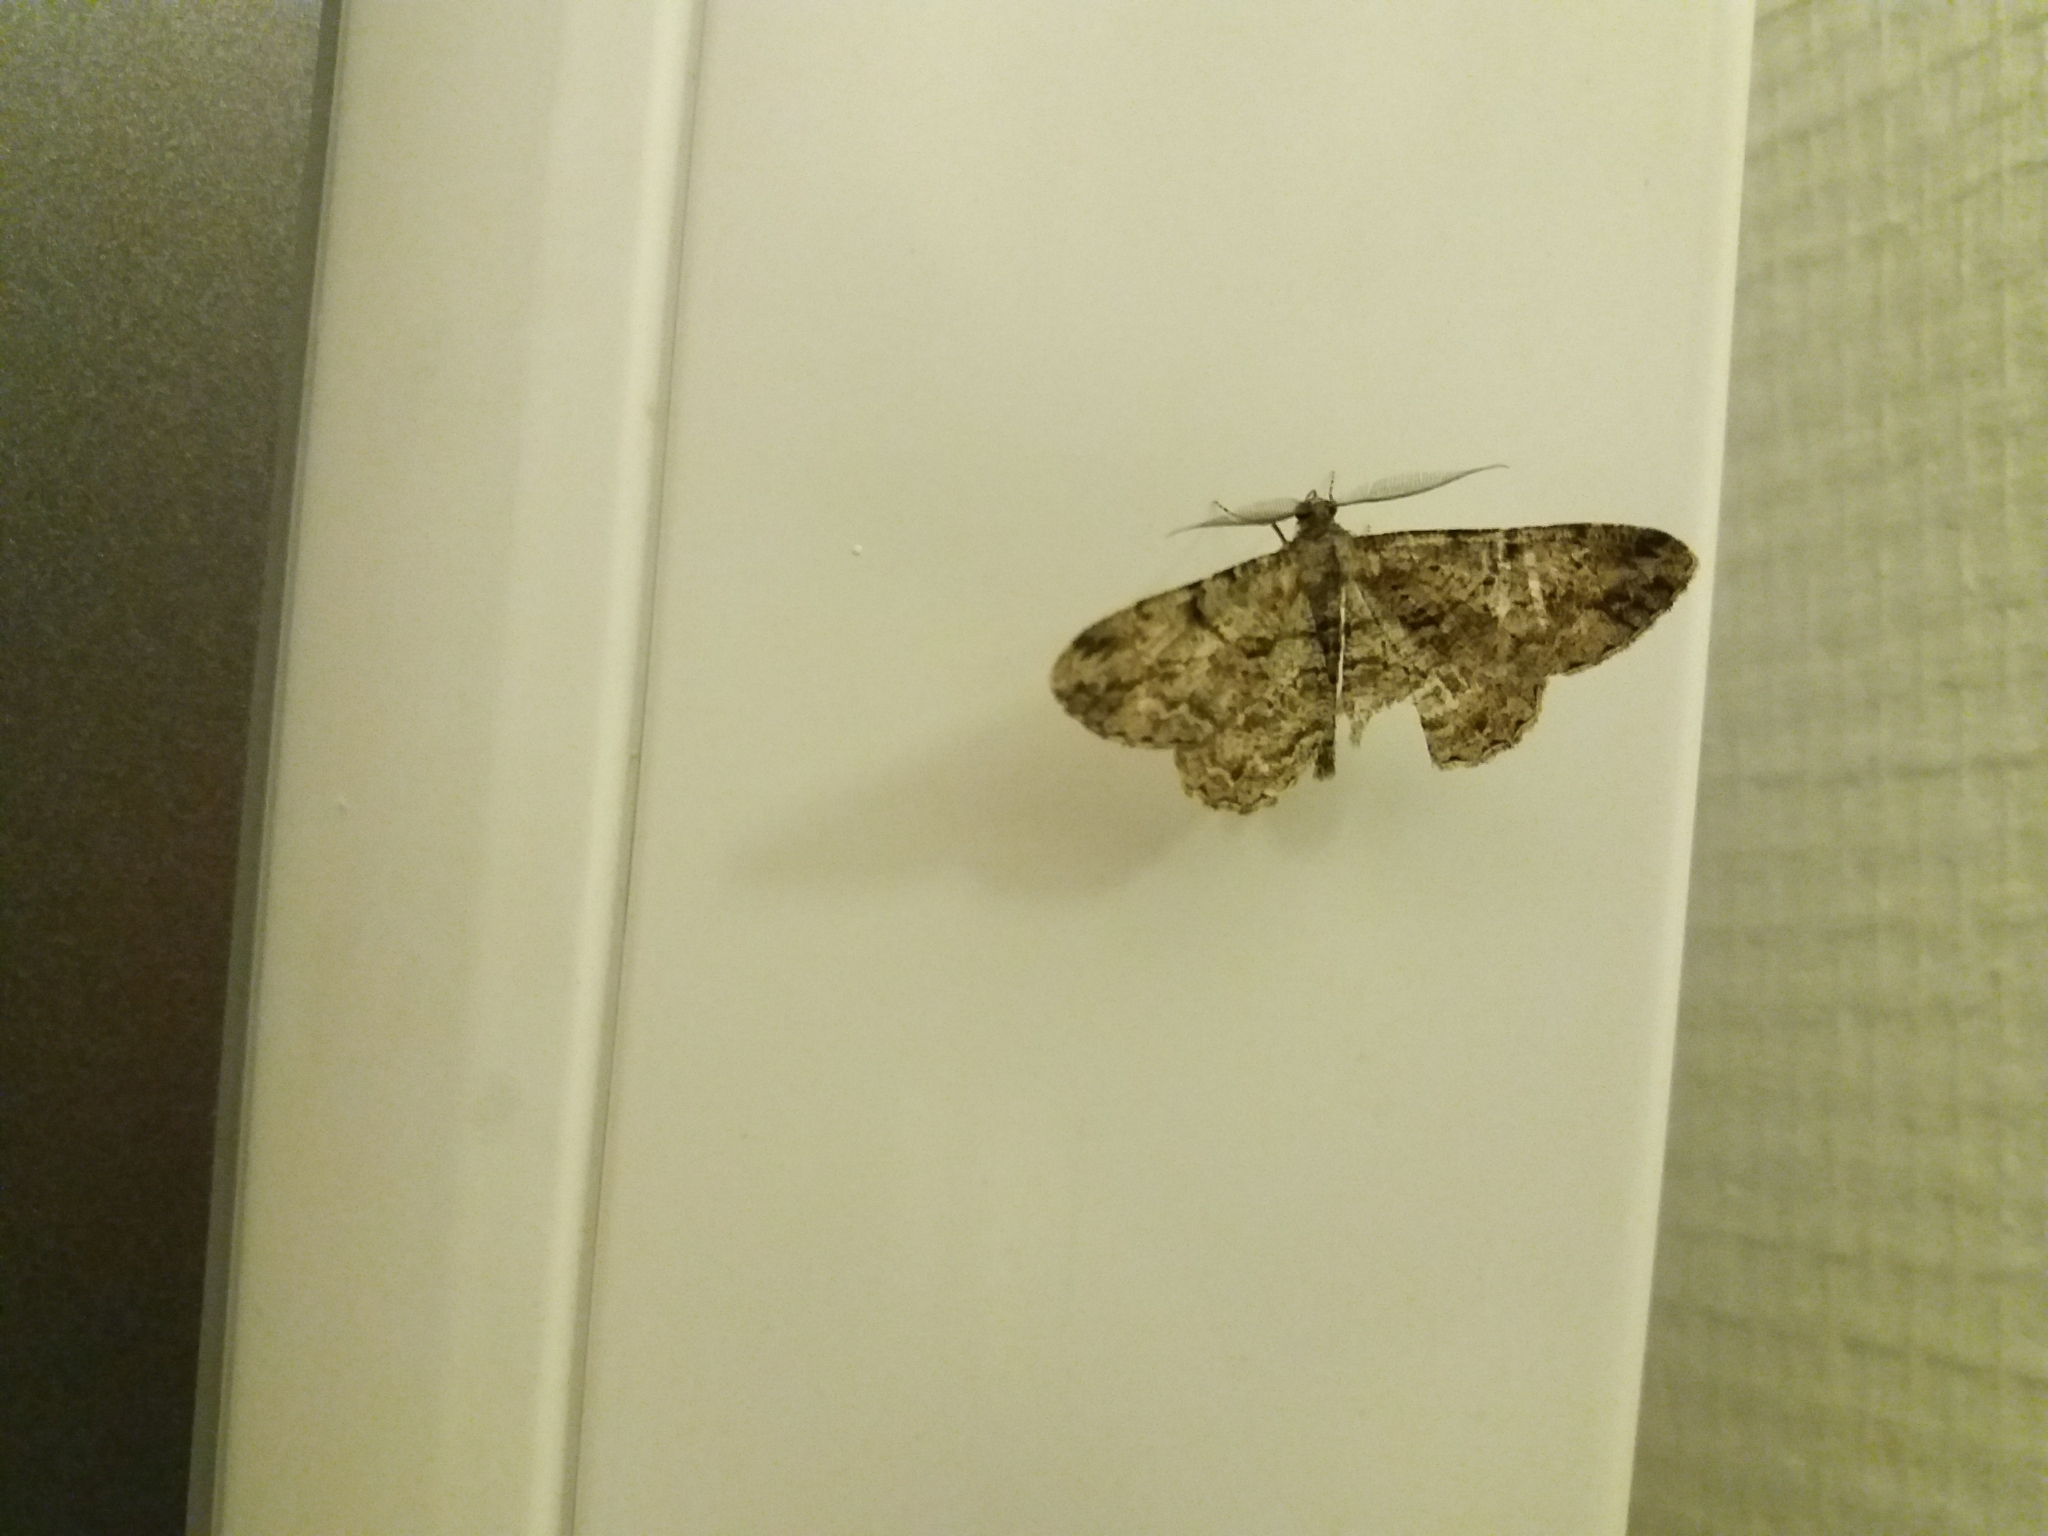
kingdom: Animalia
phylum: Arthropoda
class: Insecta
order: Lepidoptera
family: Geometridae
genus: Peribatodes
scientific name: Peribatodes rhomboidaria
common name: Willow beauty
